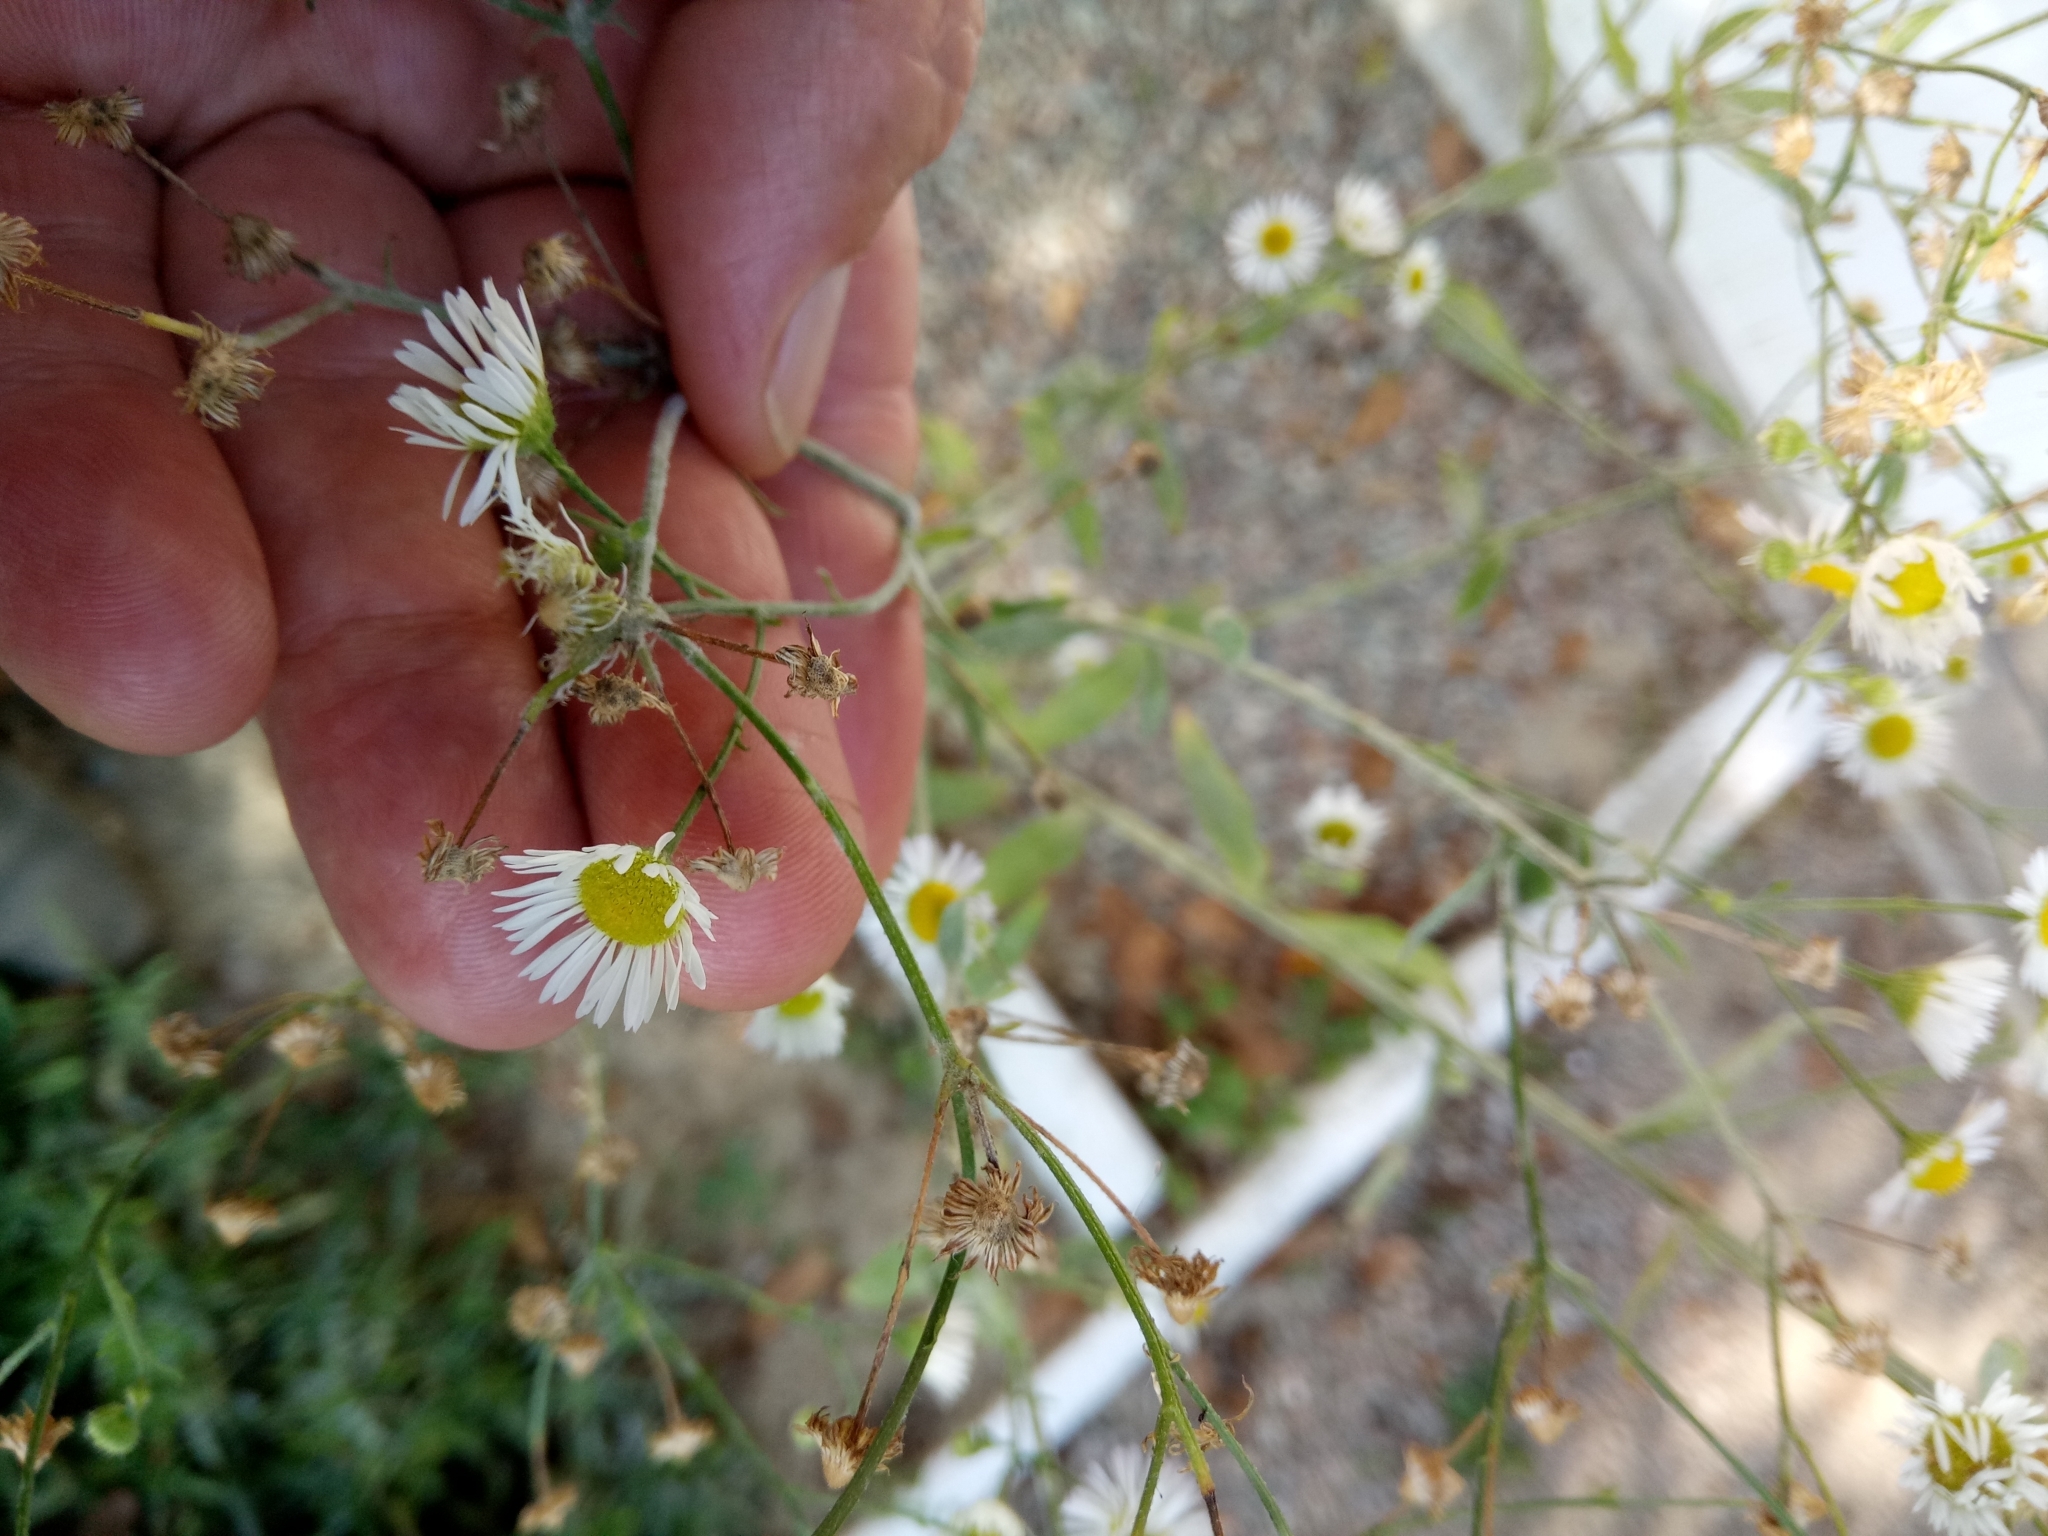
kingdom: Plantae
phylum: Tracheophyta
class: Magnoliopsida
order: Asterales
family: Asteraceae
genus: Erigeron
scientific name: Erigeron strigosus
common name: Common eastern fleabane
